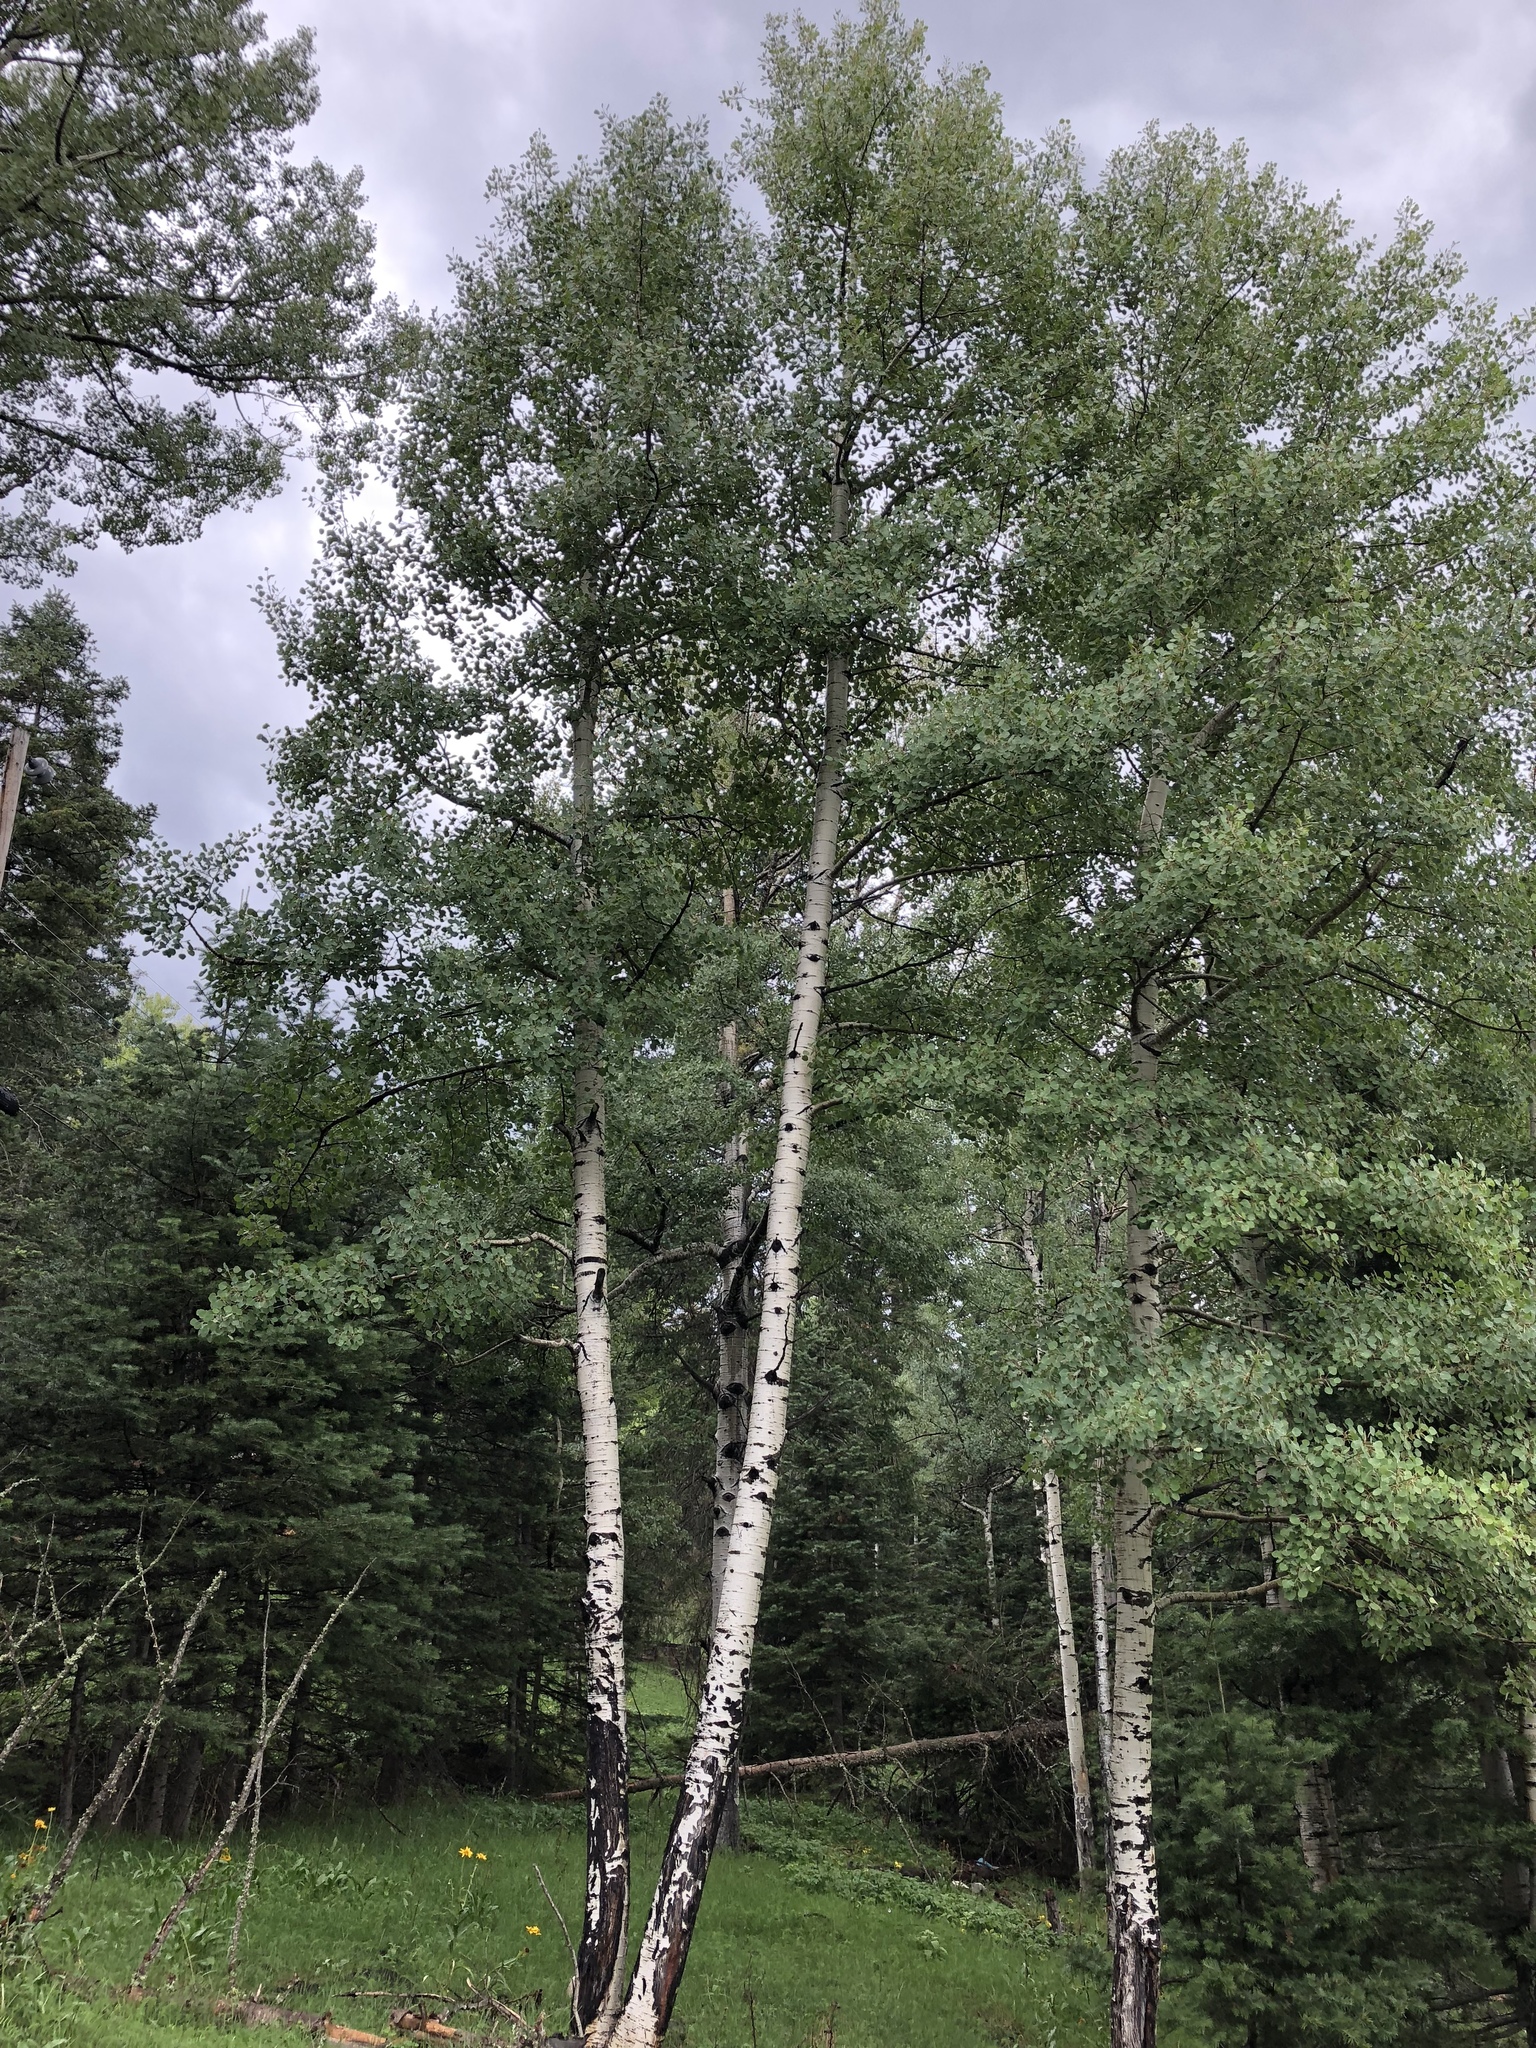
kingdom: Plantae
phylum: Tracheophyta
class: Magnoliopsida
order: Malpighiales
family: Salicaceae
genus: Populus
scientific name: Populus tremuloides
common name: Quaking aspen
